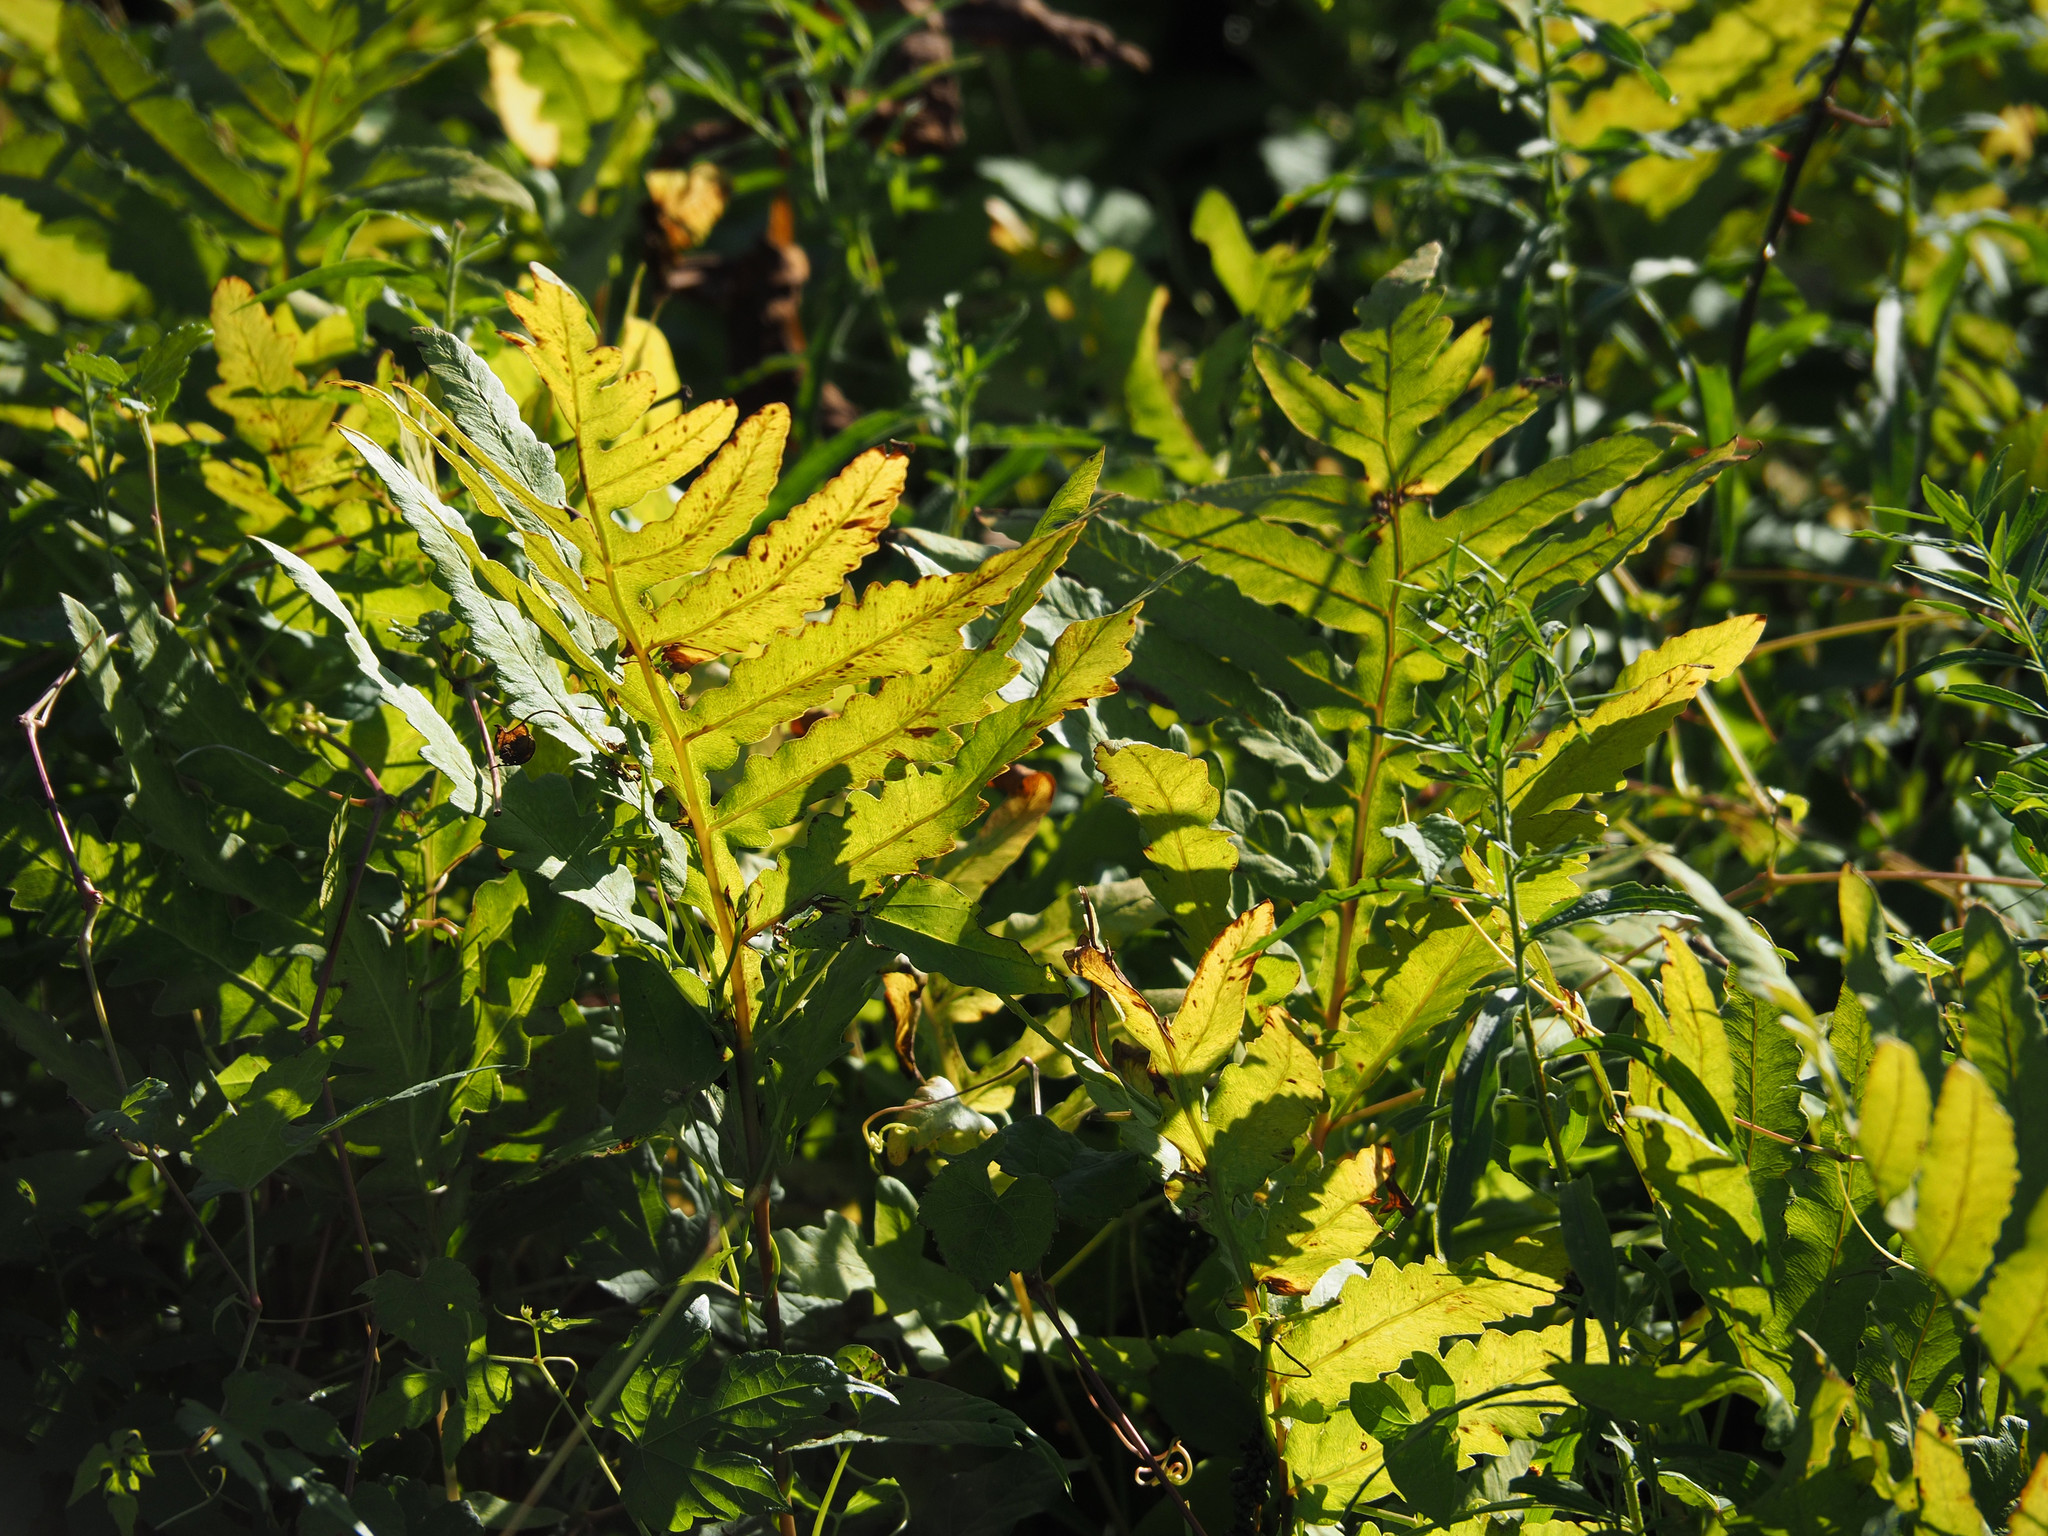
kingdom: Plantae
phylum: Tracheophyta
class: Polypodiopsida
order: Polypodiales
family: Onocleaceae
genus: Onoclea
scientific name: Onoclea sensibilis
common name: Sensitive fern
